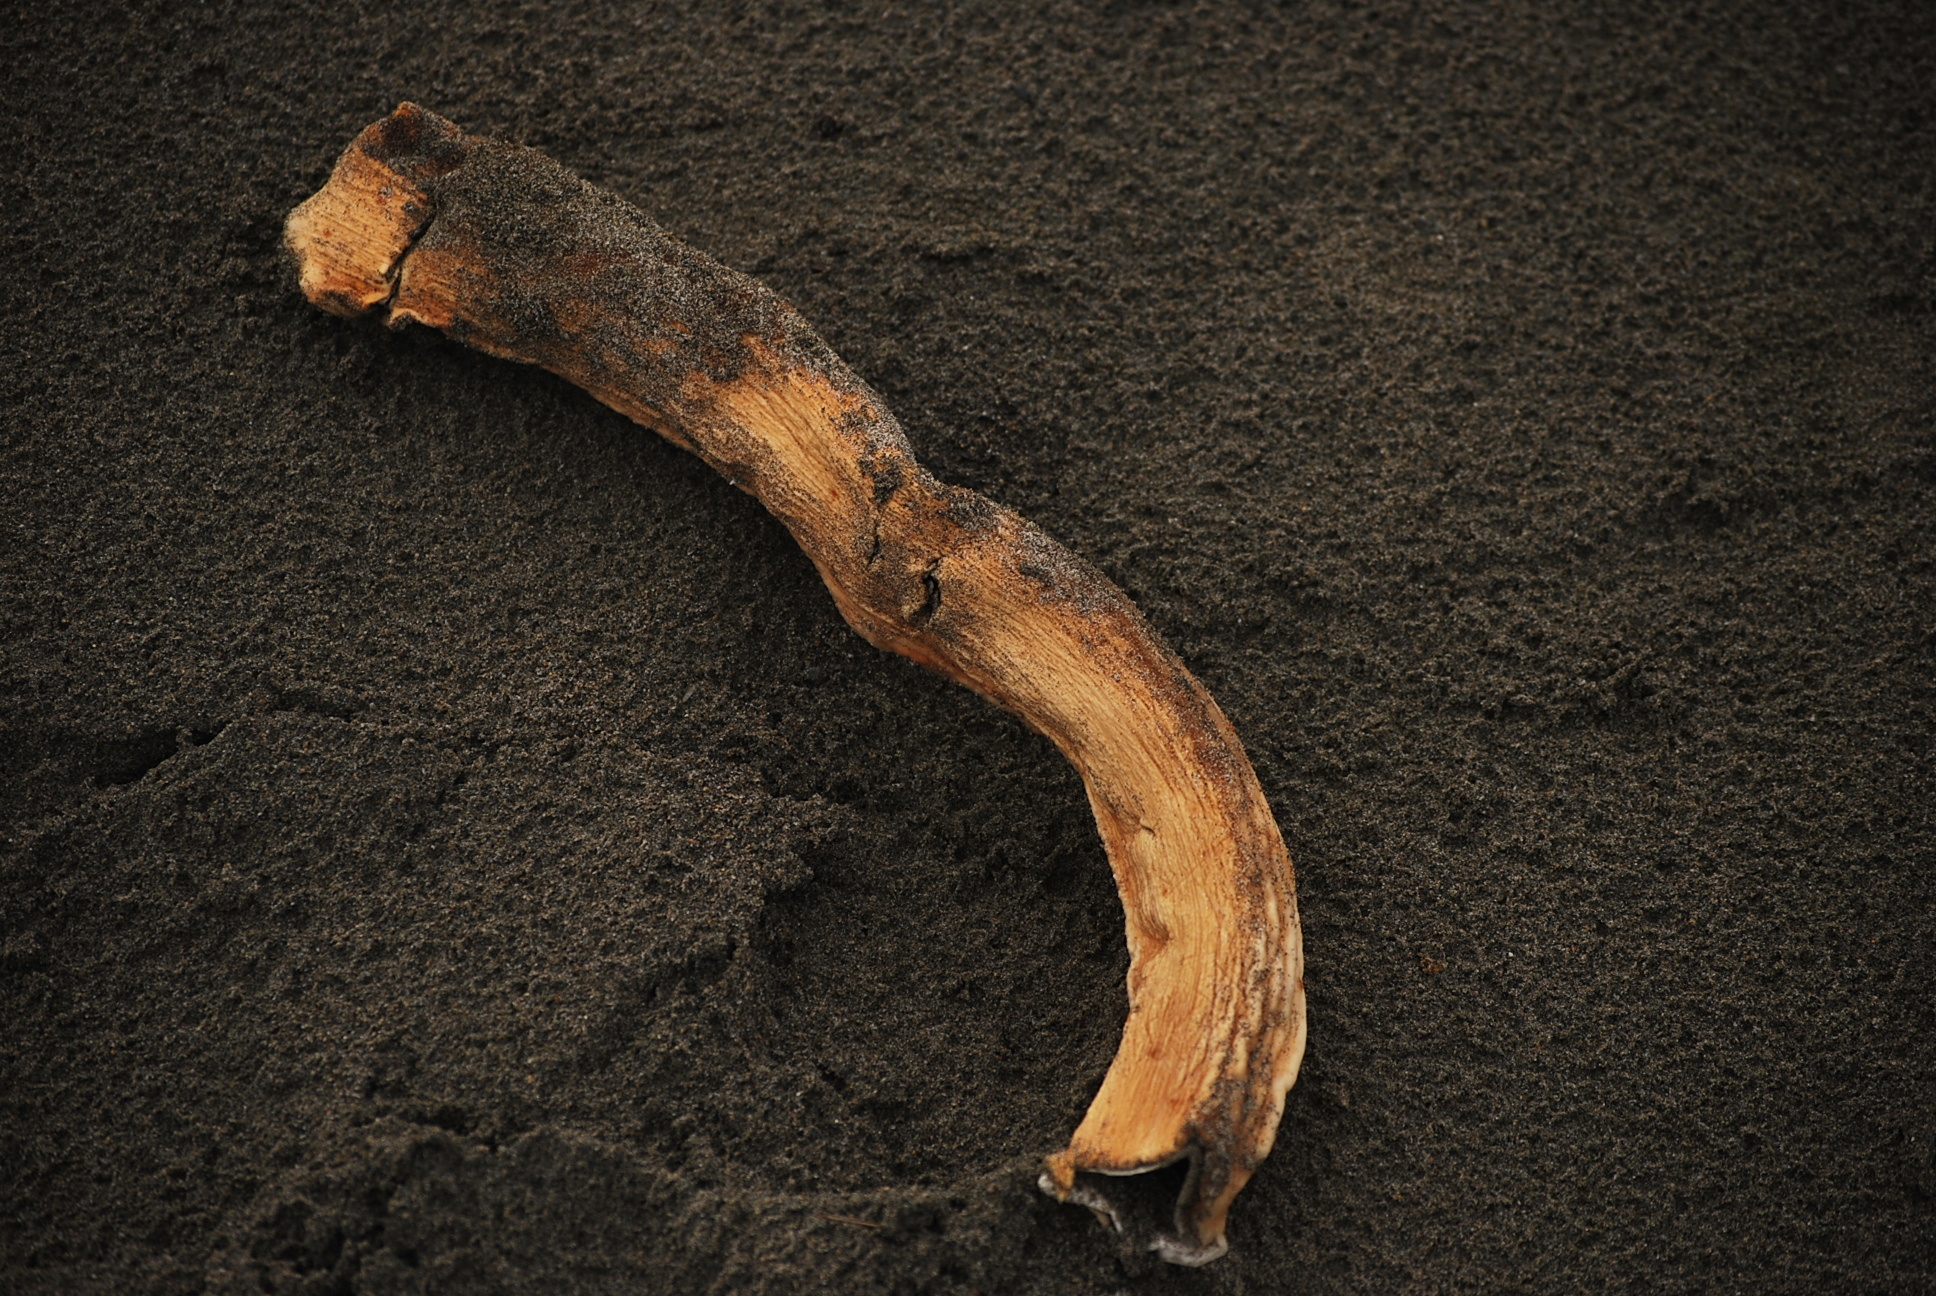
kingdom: Chromista
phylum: Ochrophyta
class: Phaeophyceae
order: Laminariales
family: Laminariaceae
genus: Nereocystis
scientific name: Nereocystis luetkeana
